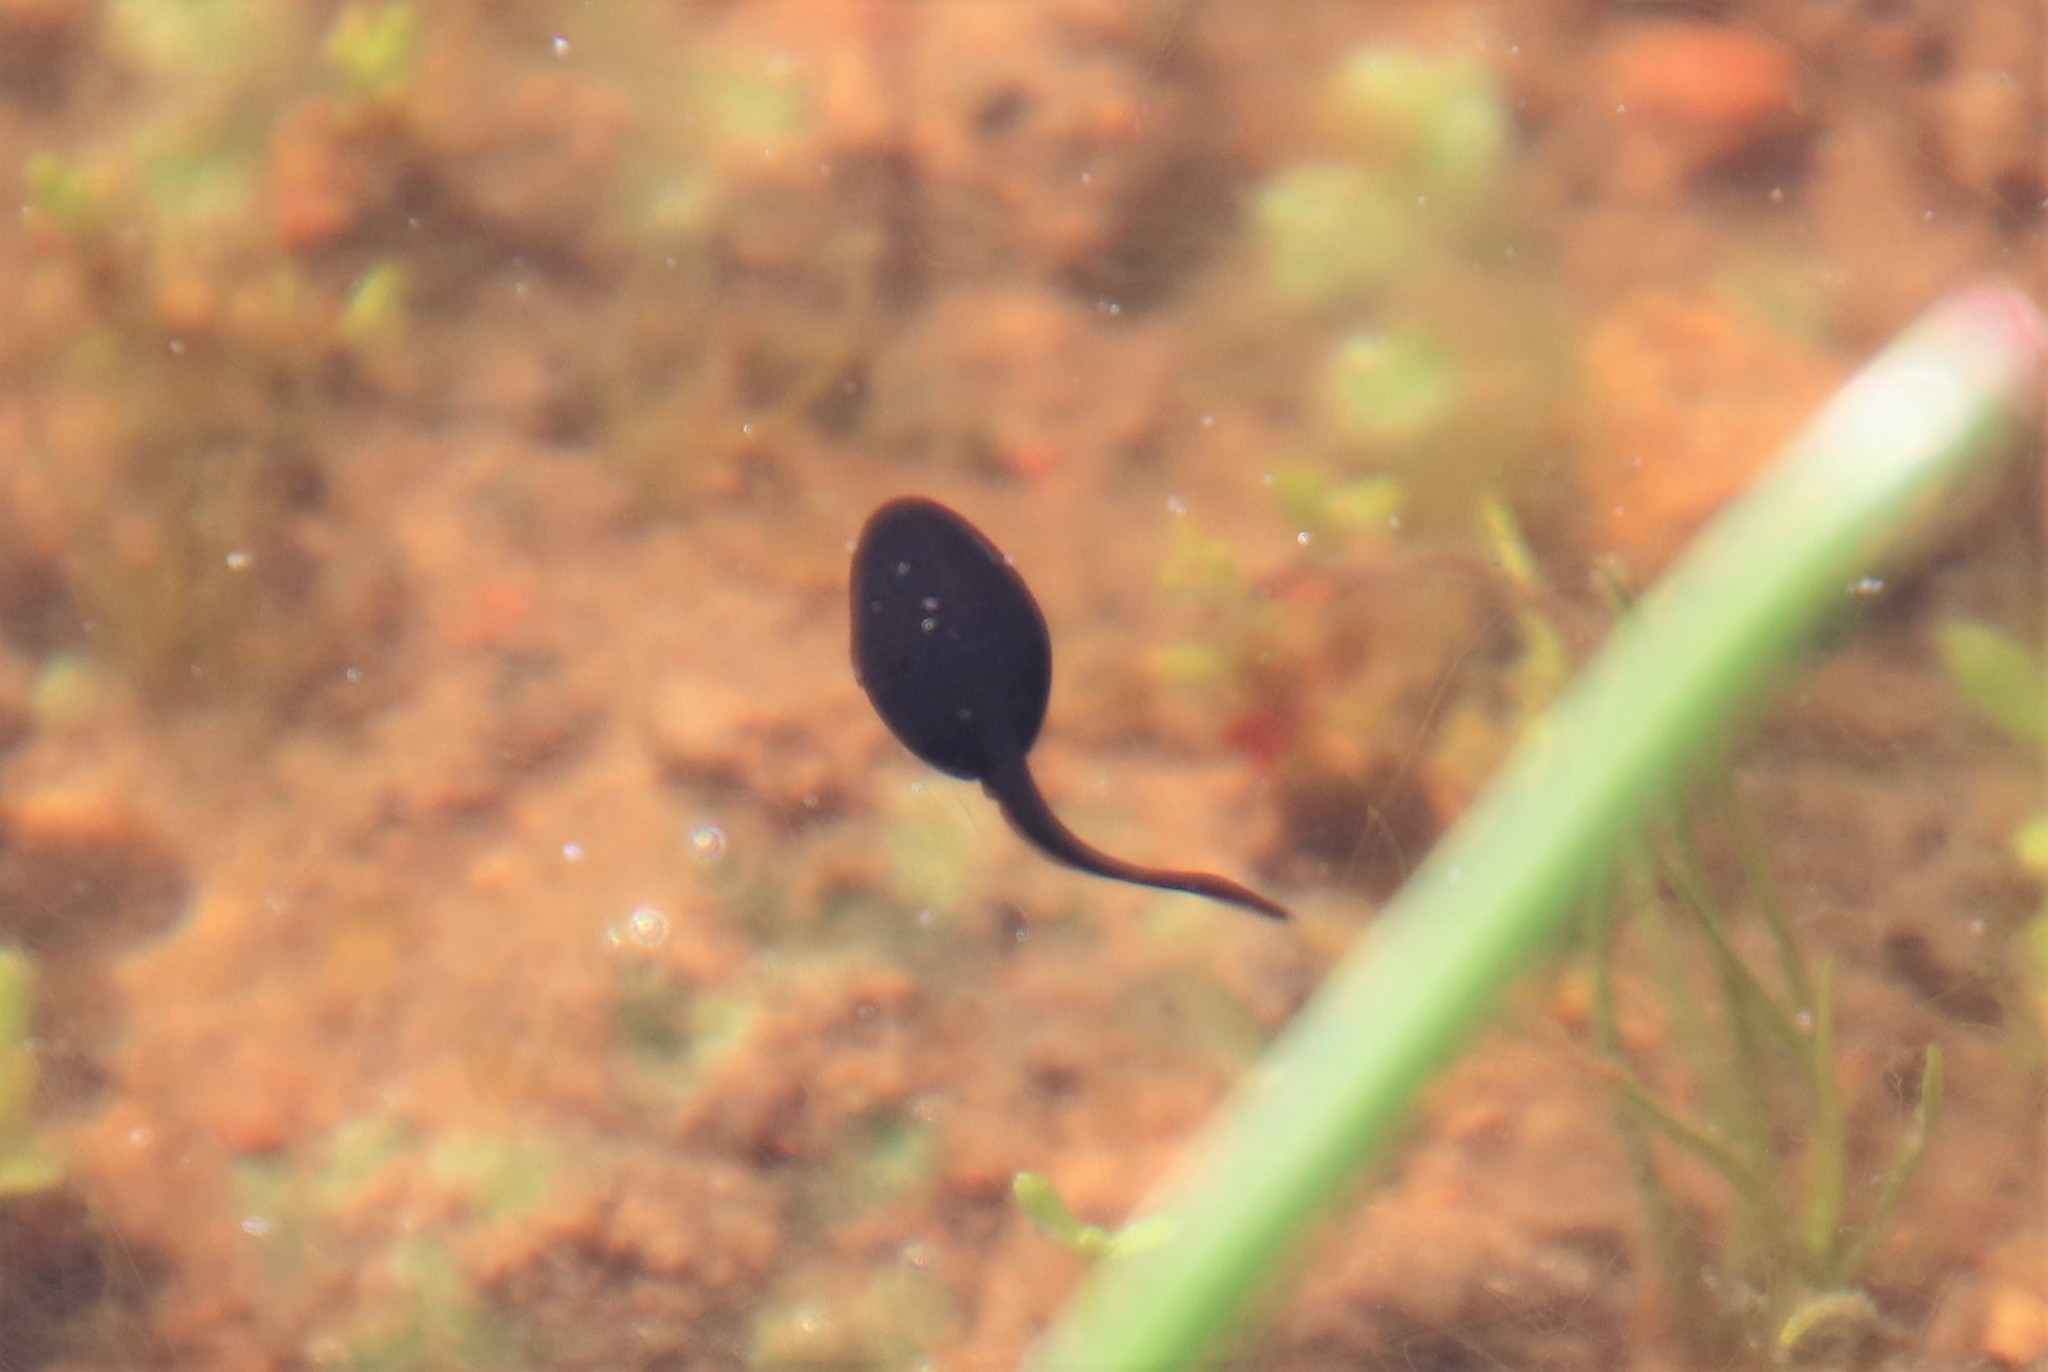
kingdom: Animalia
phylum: Chordata
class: Amphibia
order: Anura
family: Bufonidae
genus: Anaxyrus
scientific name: Anaxyrus boreas
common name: Western toad
